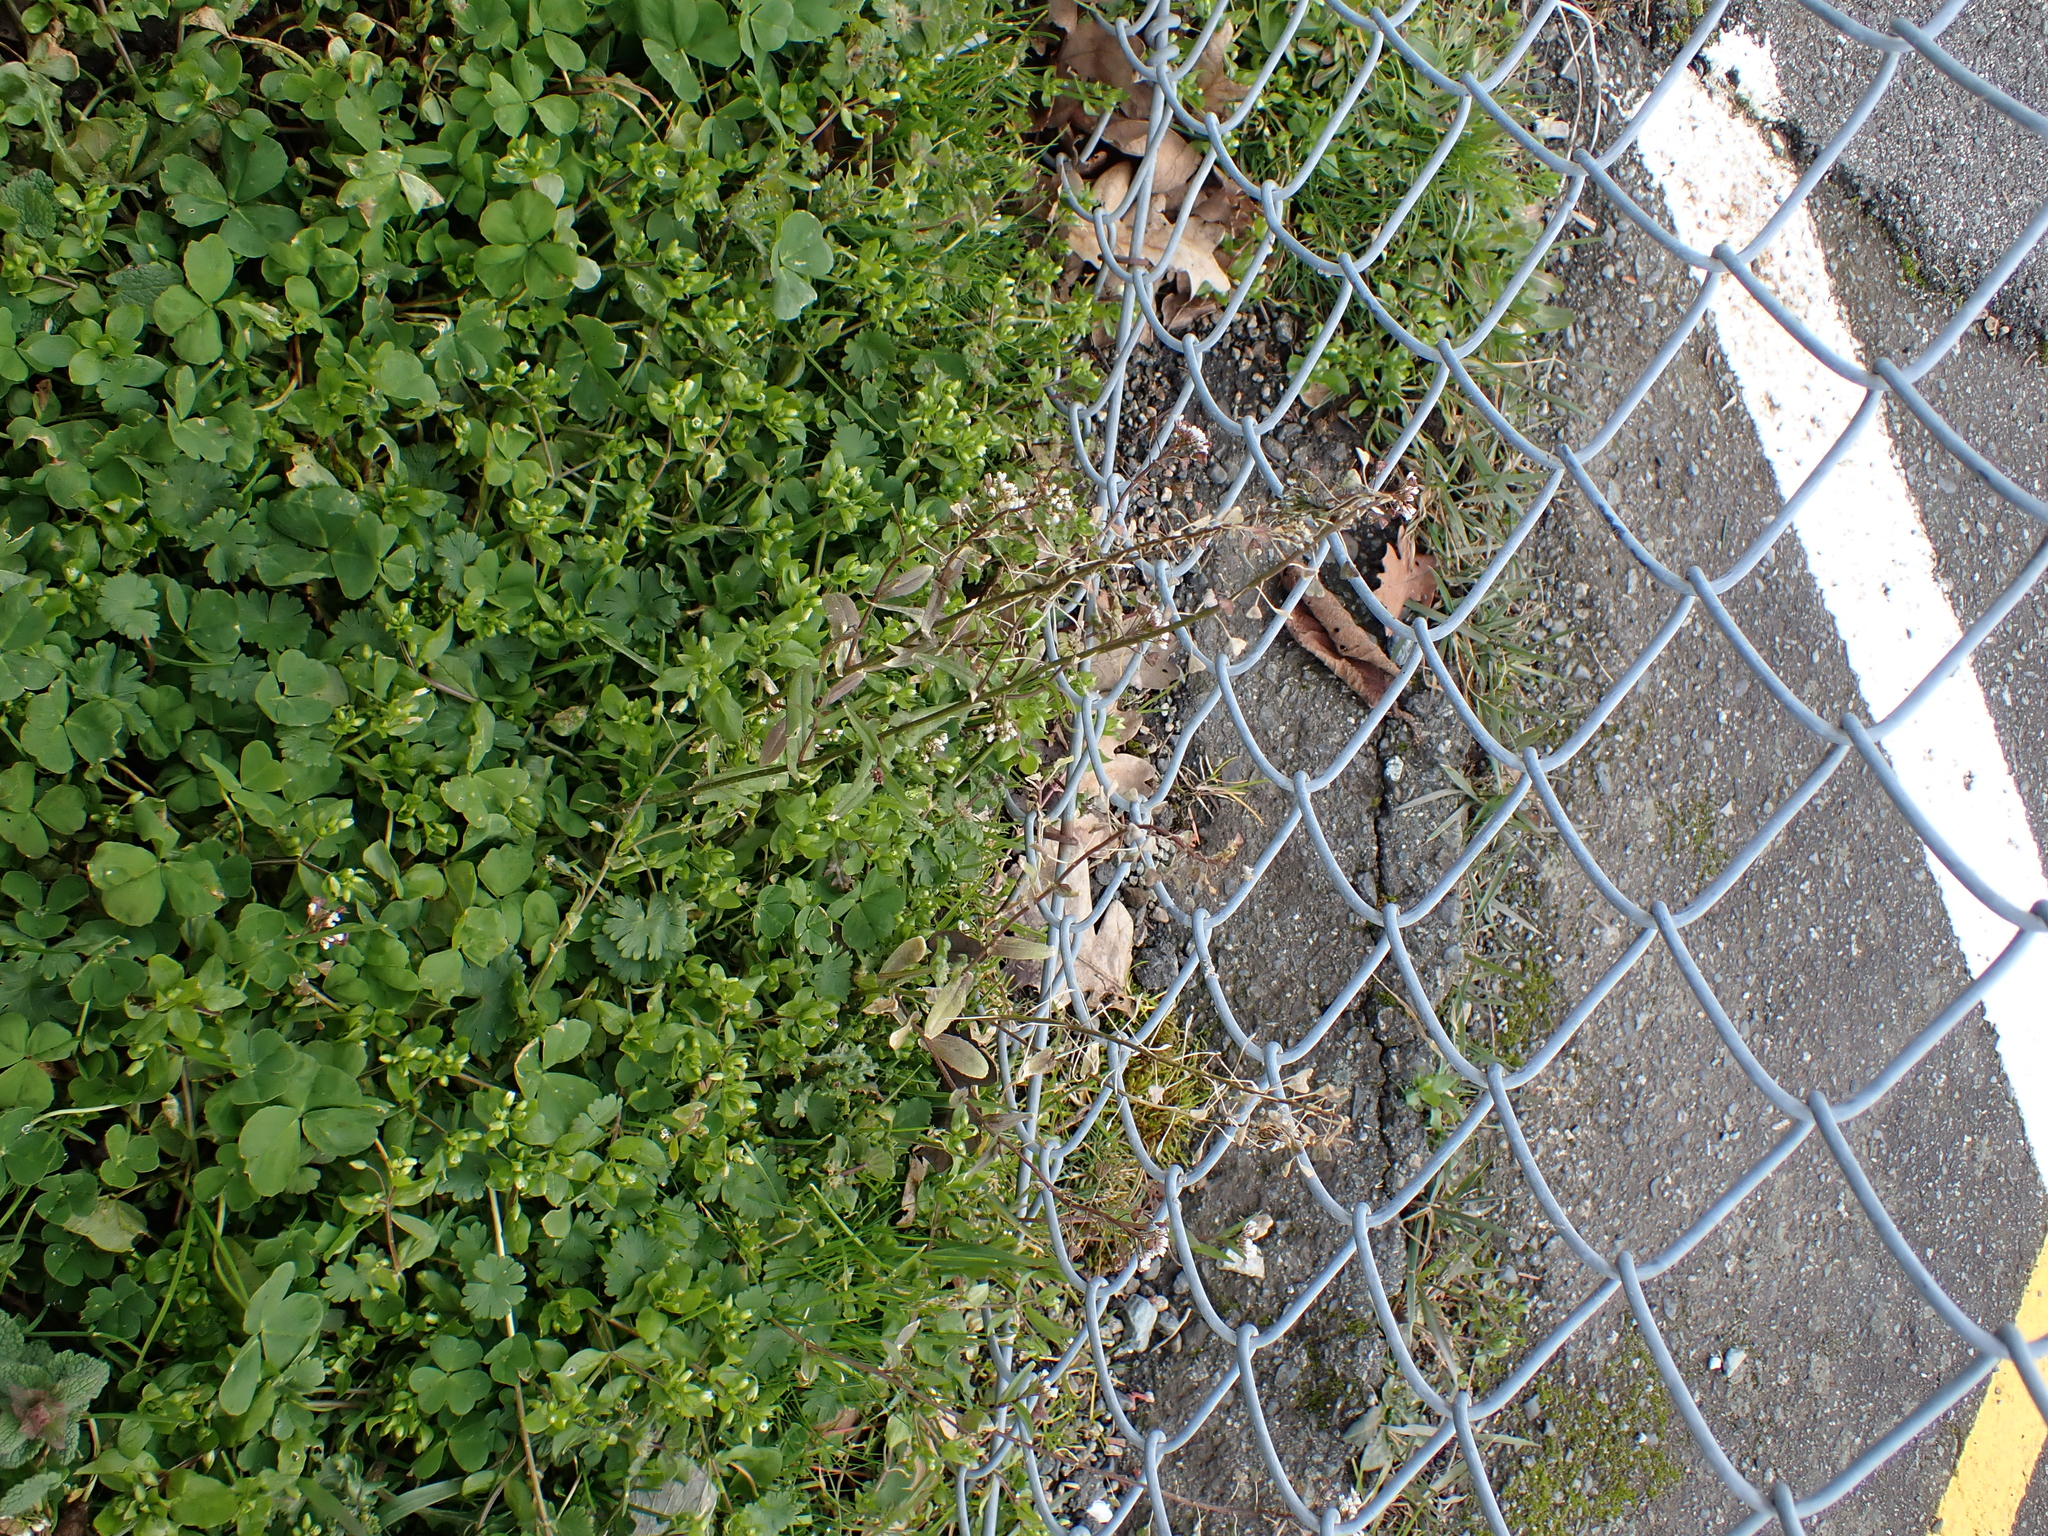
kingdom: Plantae
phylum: Tracheophyta
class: Magnoliopsida
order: Brassicales
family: Brassicaceae
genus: Capsella
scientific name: Capsella bursa-pastoris
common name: Shepherd's purse
